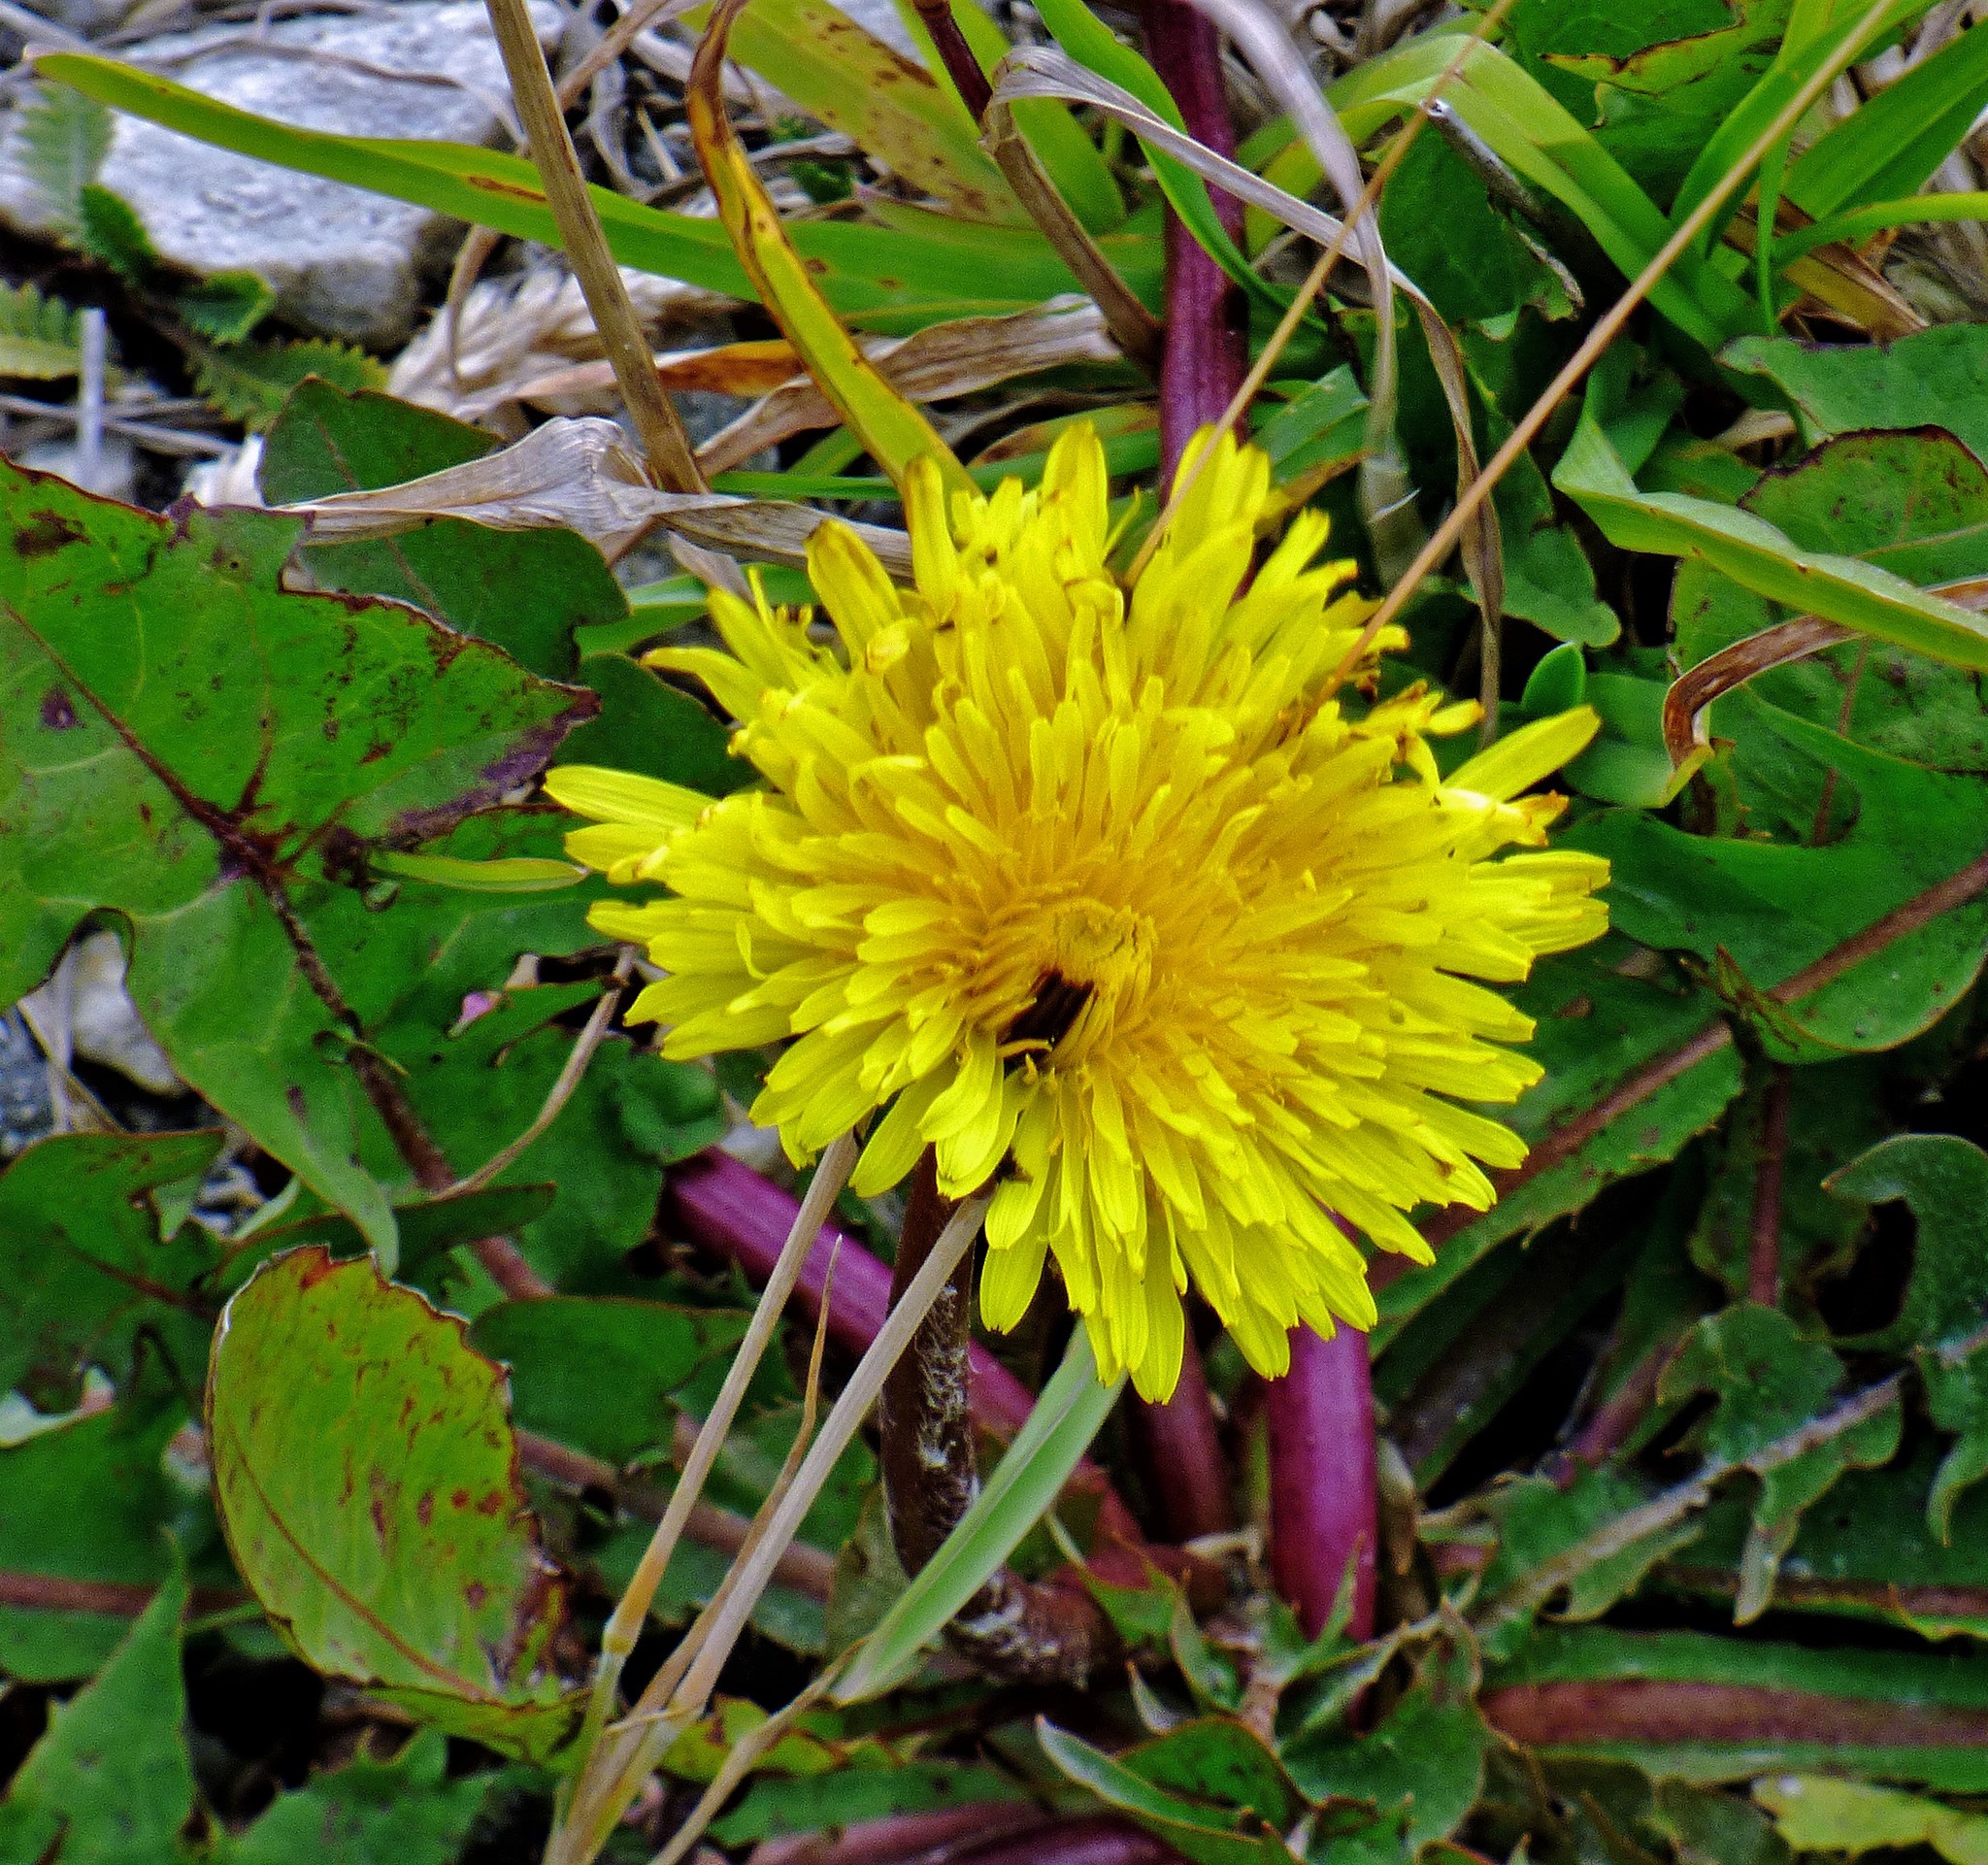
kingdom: Plantae
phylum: Tracheophyta
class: Magnoliopsida
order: Asterales
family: Asteraceae
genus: Taraxacum
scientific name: Taraxacum officinale
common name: Common dandelion
